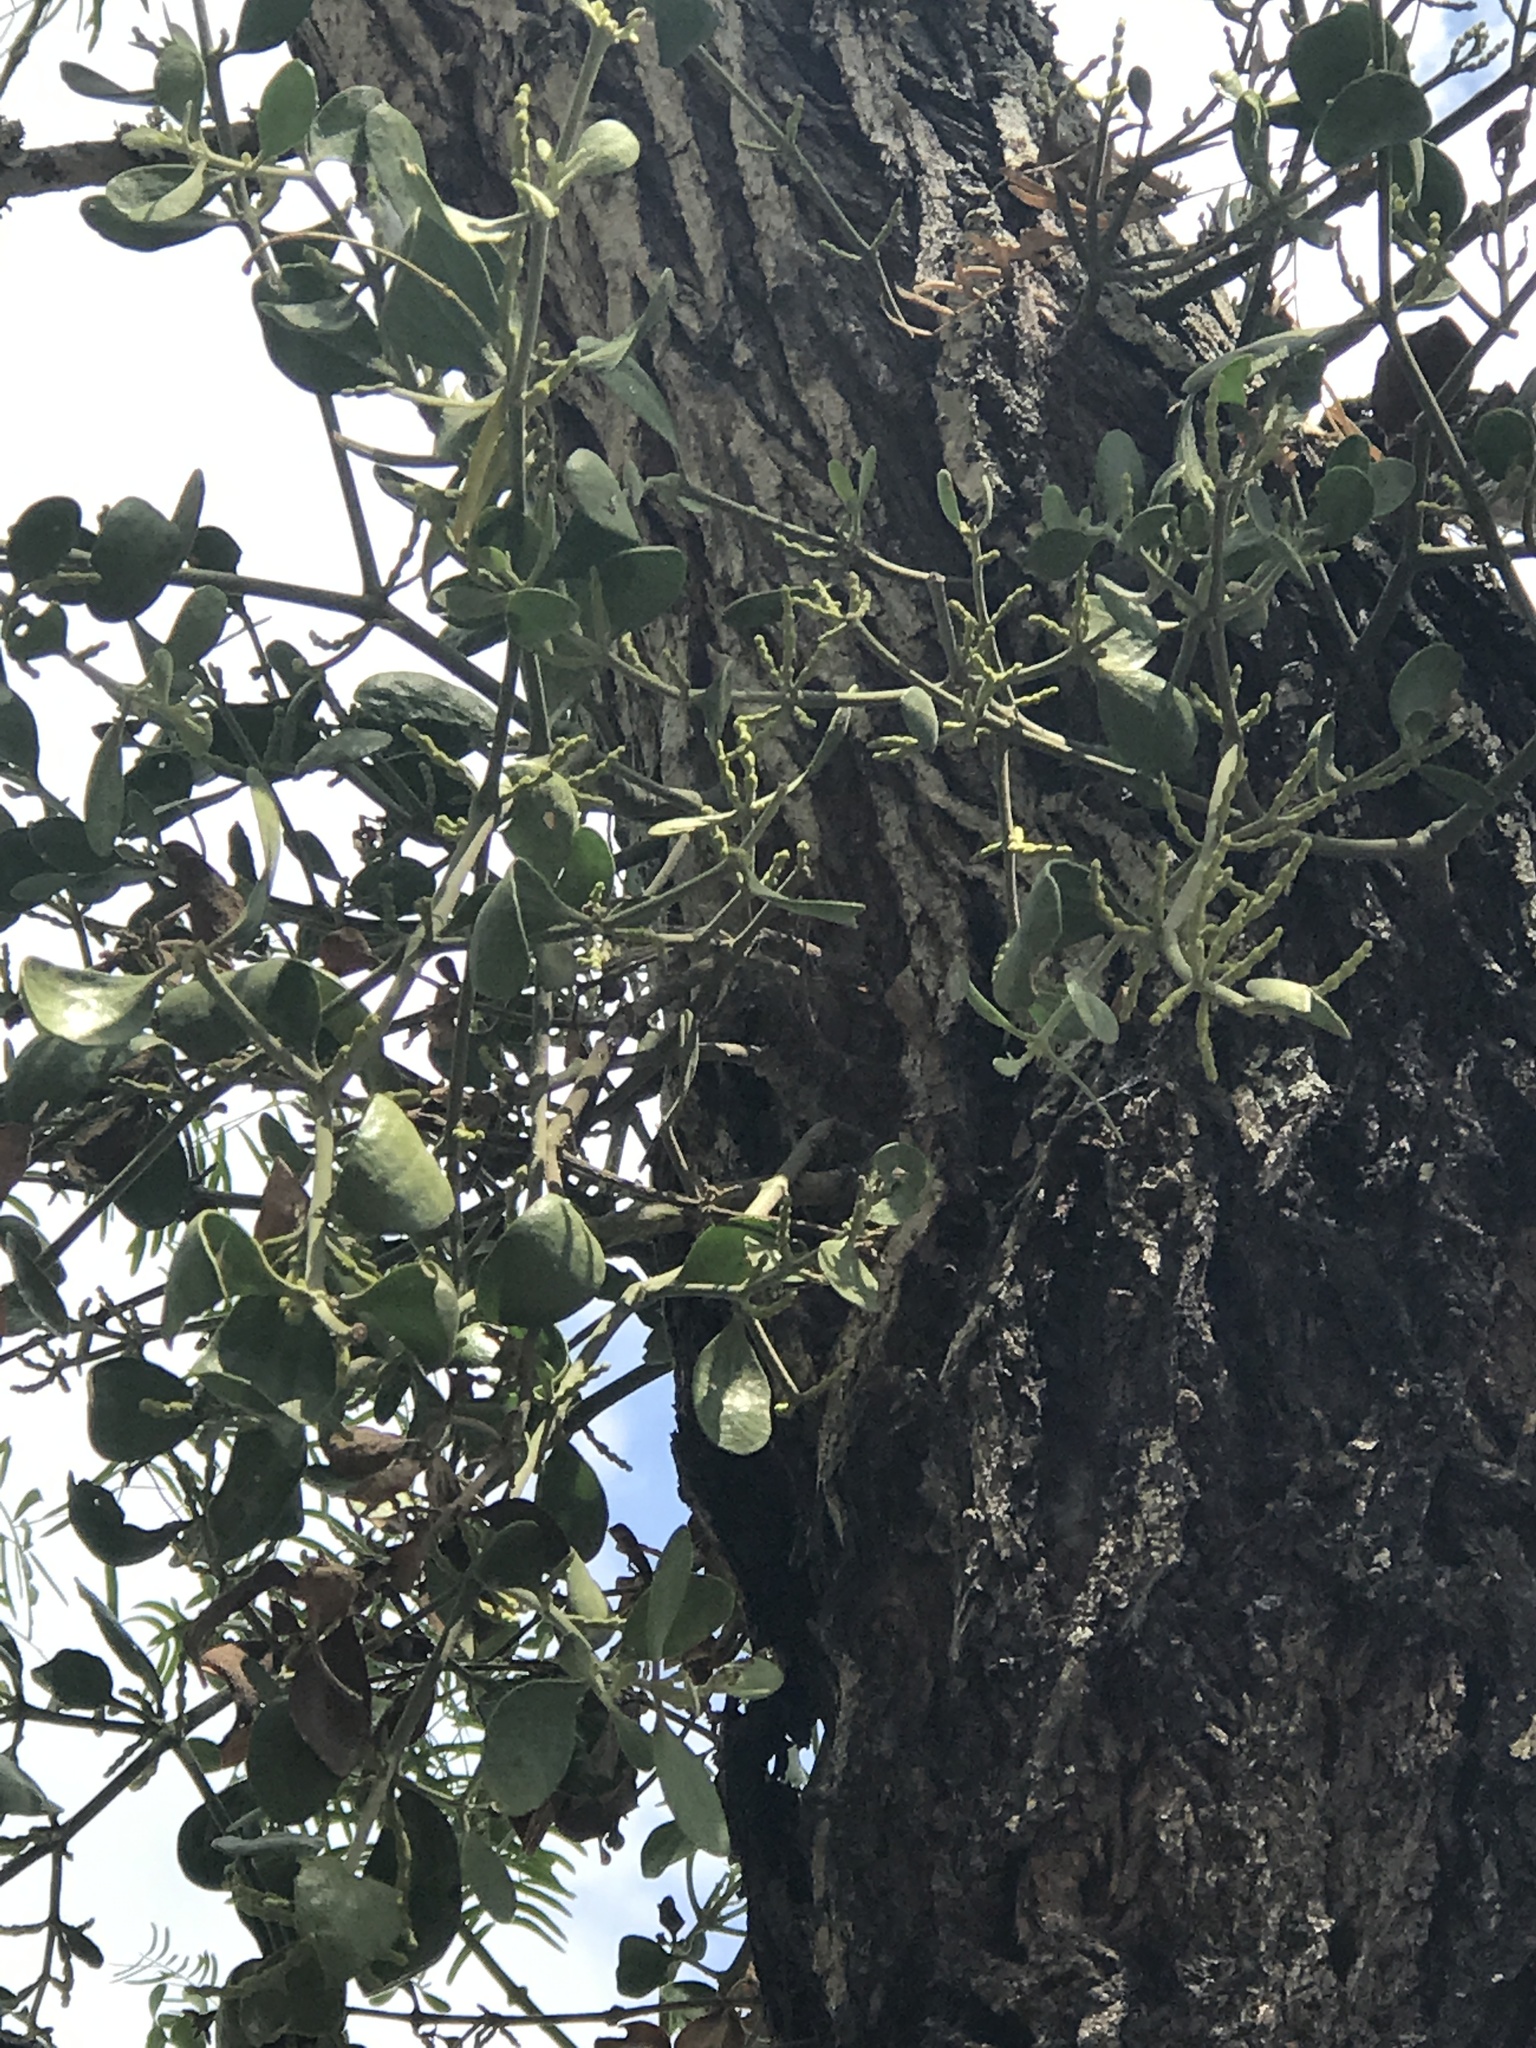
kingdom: Plantae
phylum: Tracheophyta
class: Magnoliopsida
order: Santalales
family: Viscaceae
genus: Phoradendron
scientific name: Phoradendron leucarpum
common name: Pacific mistletoe
